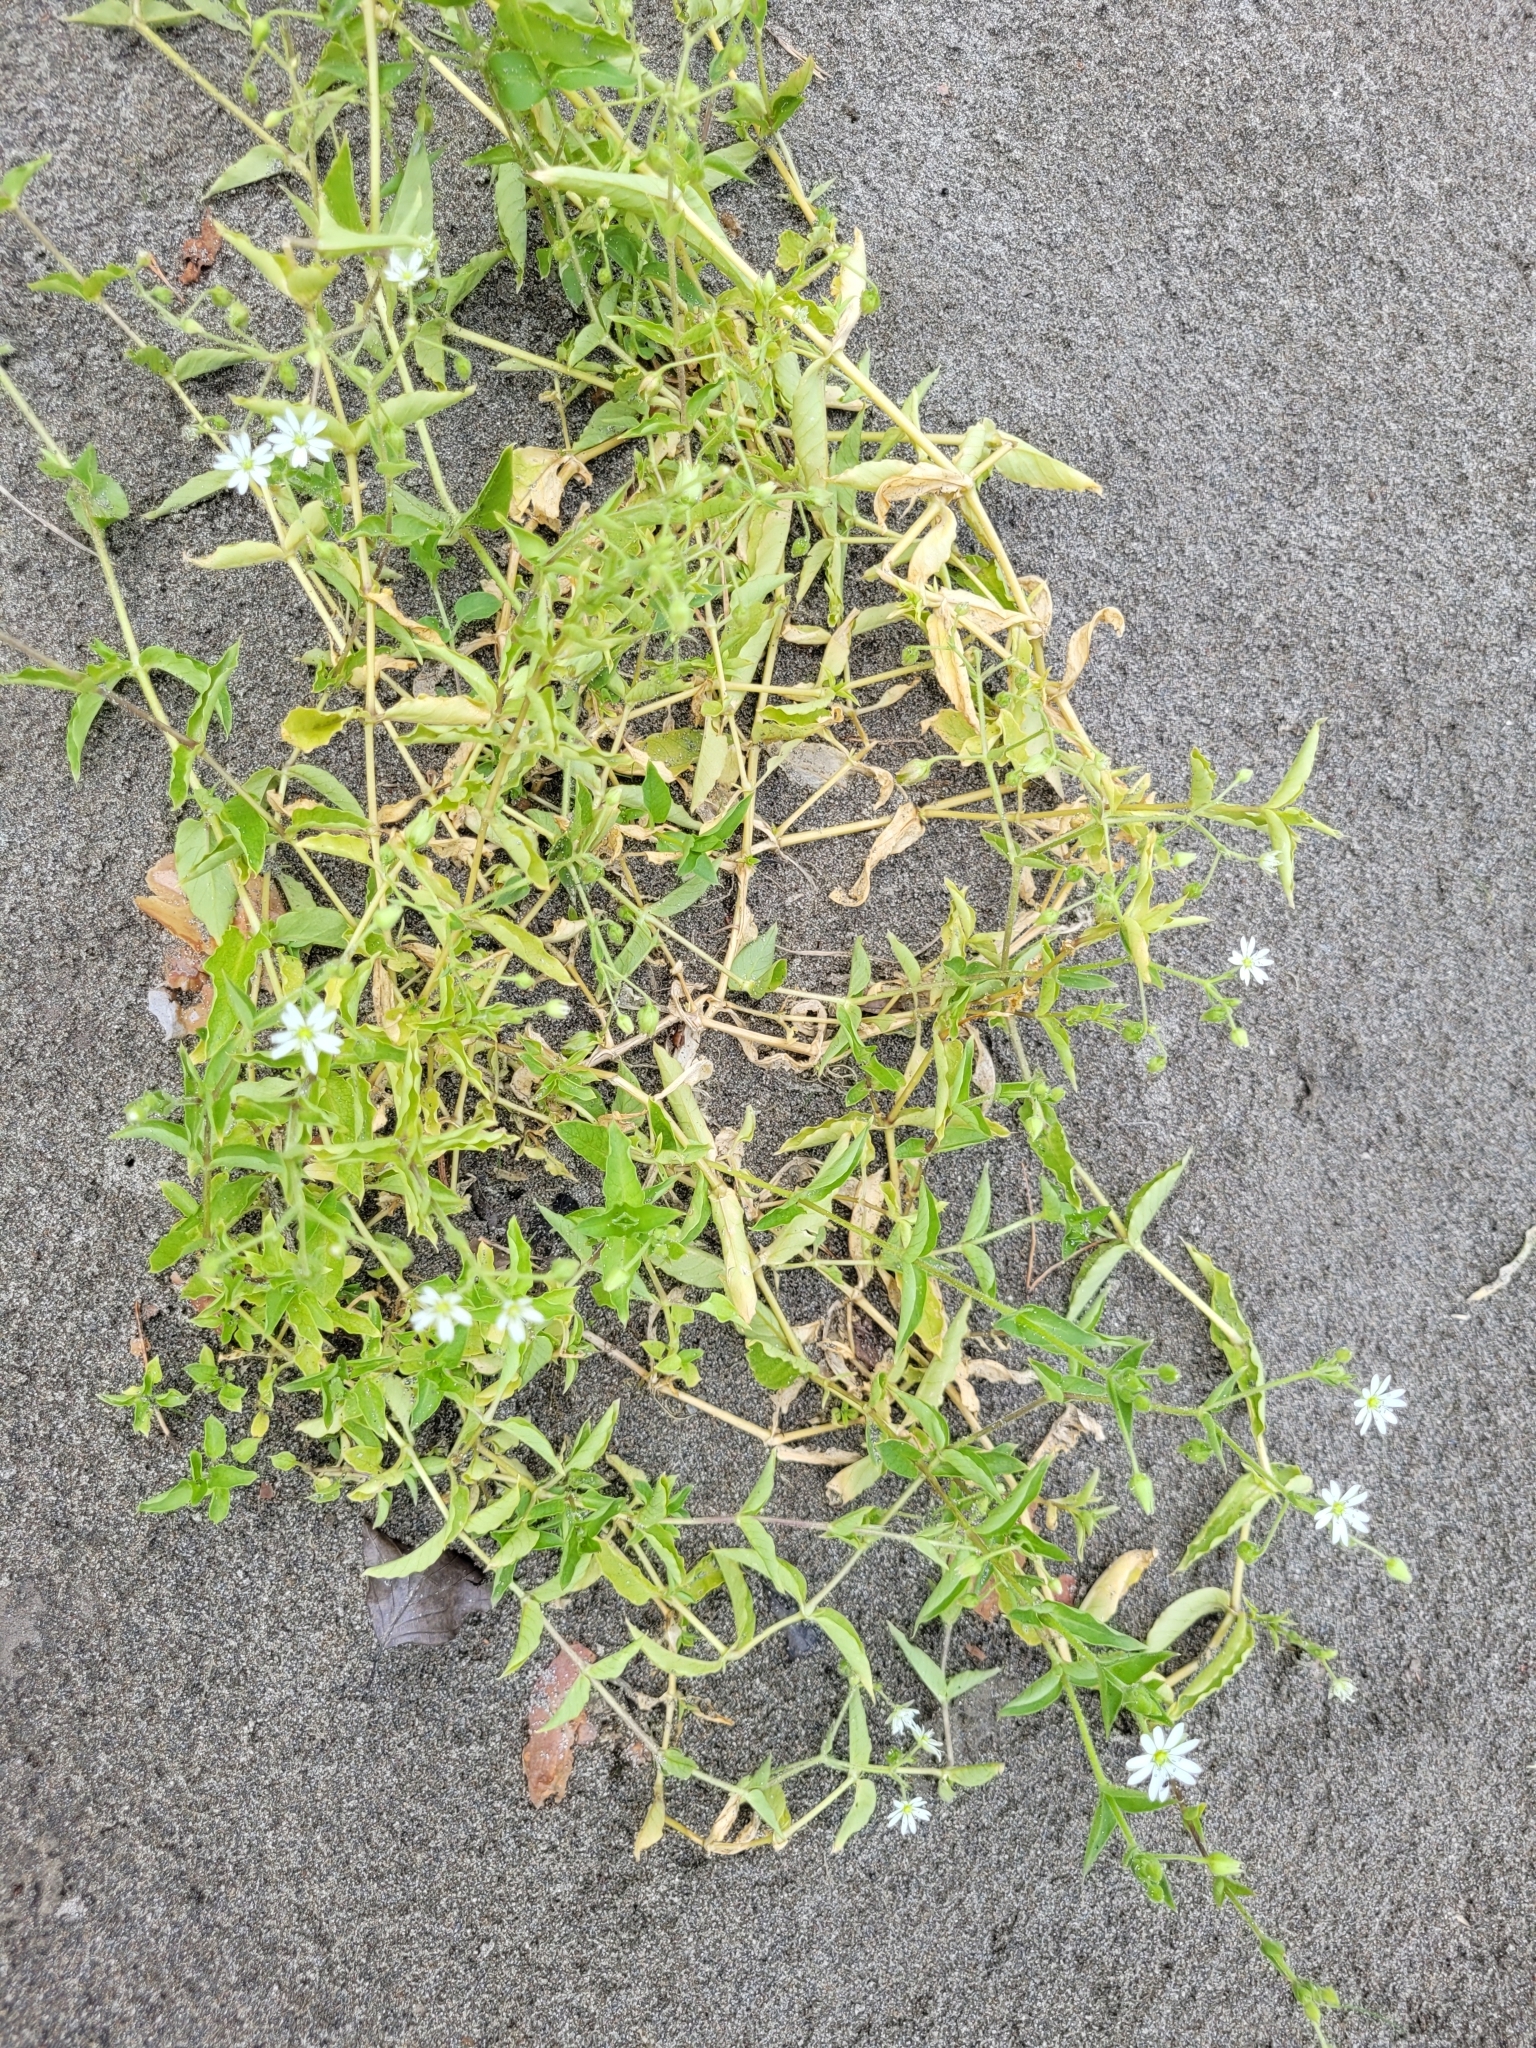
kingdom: Plantae
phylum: Tracheophyta
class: Magnoliopsida
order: Caryophyllales
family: Caryophyllaceae
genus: Stellaria
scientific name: Stellaria aquatica
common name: Water chickweed
